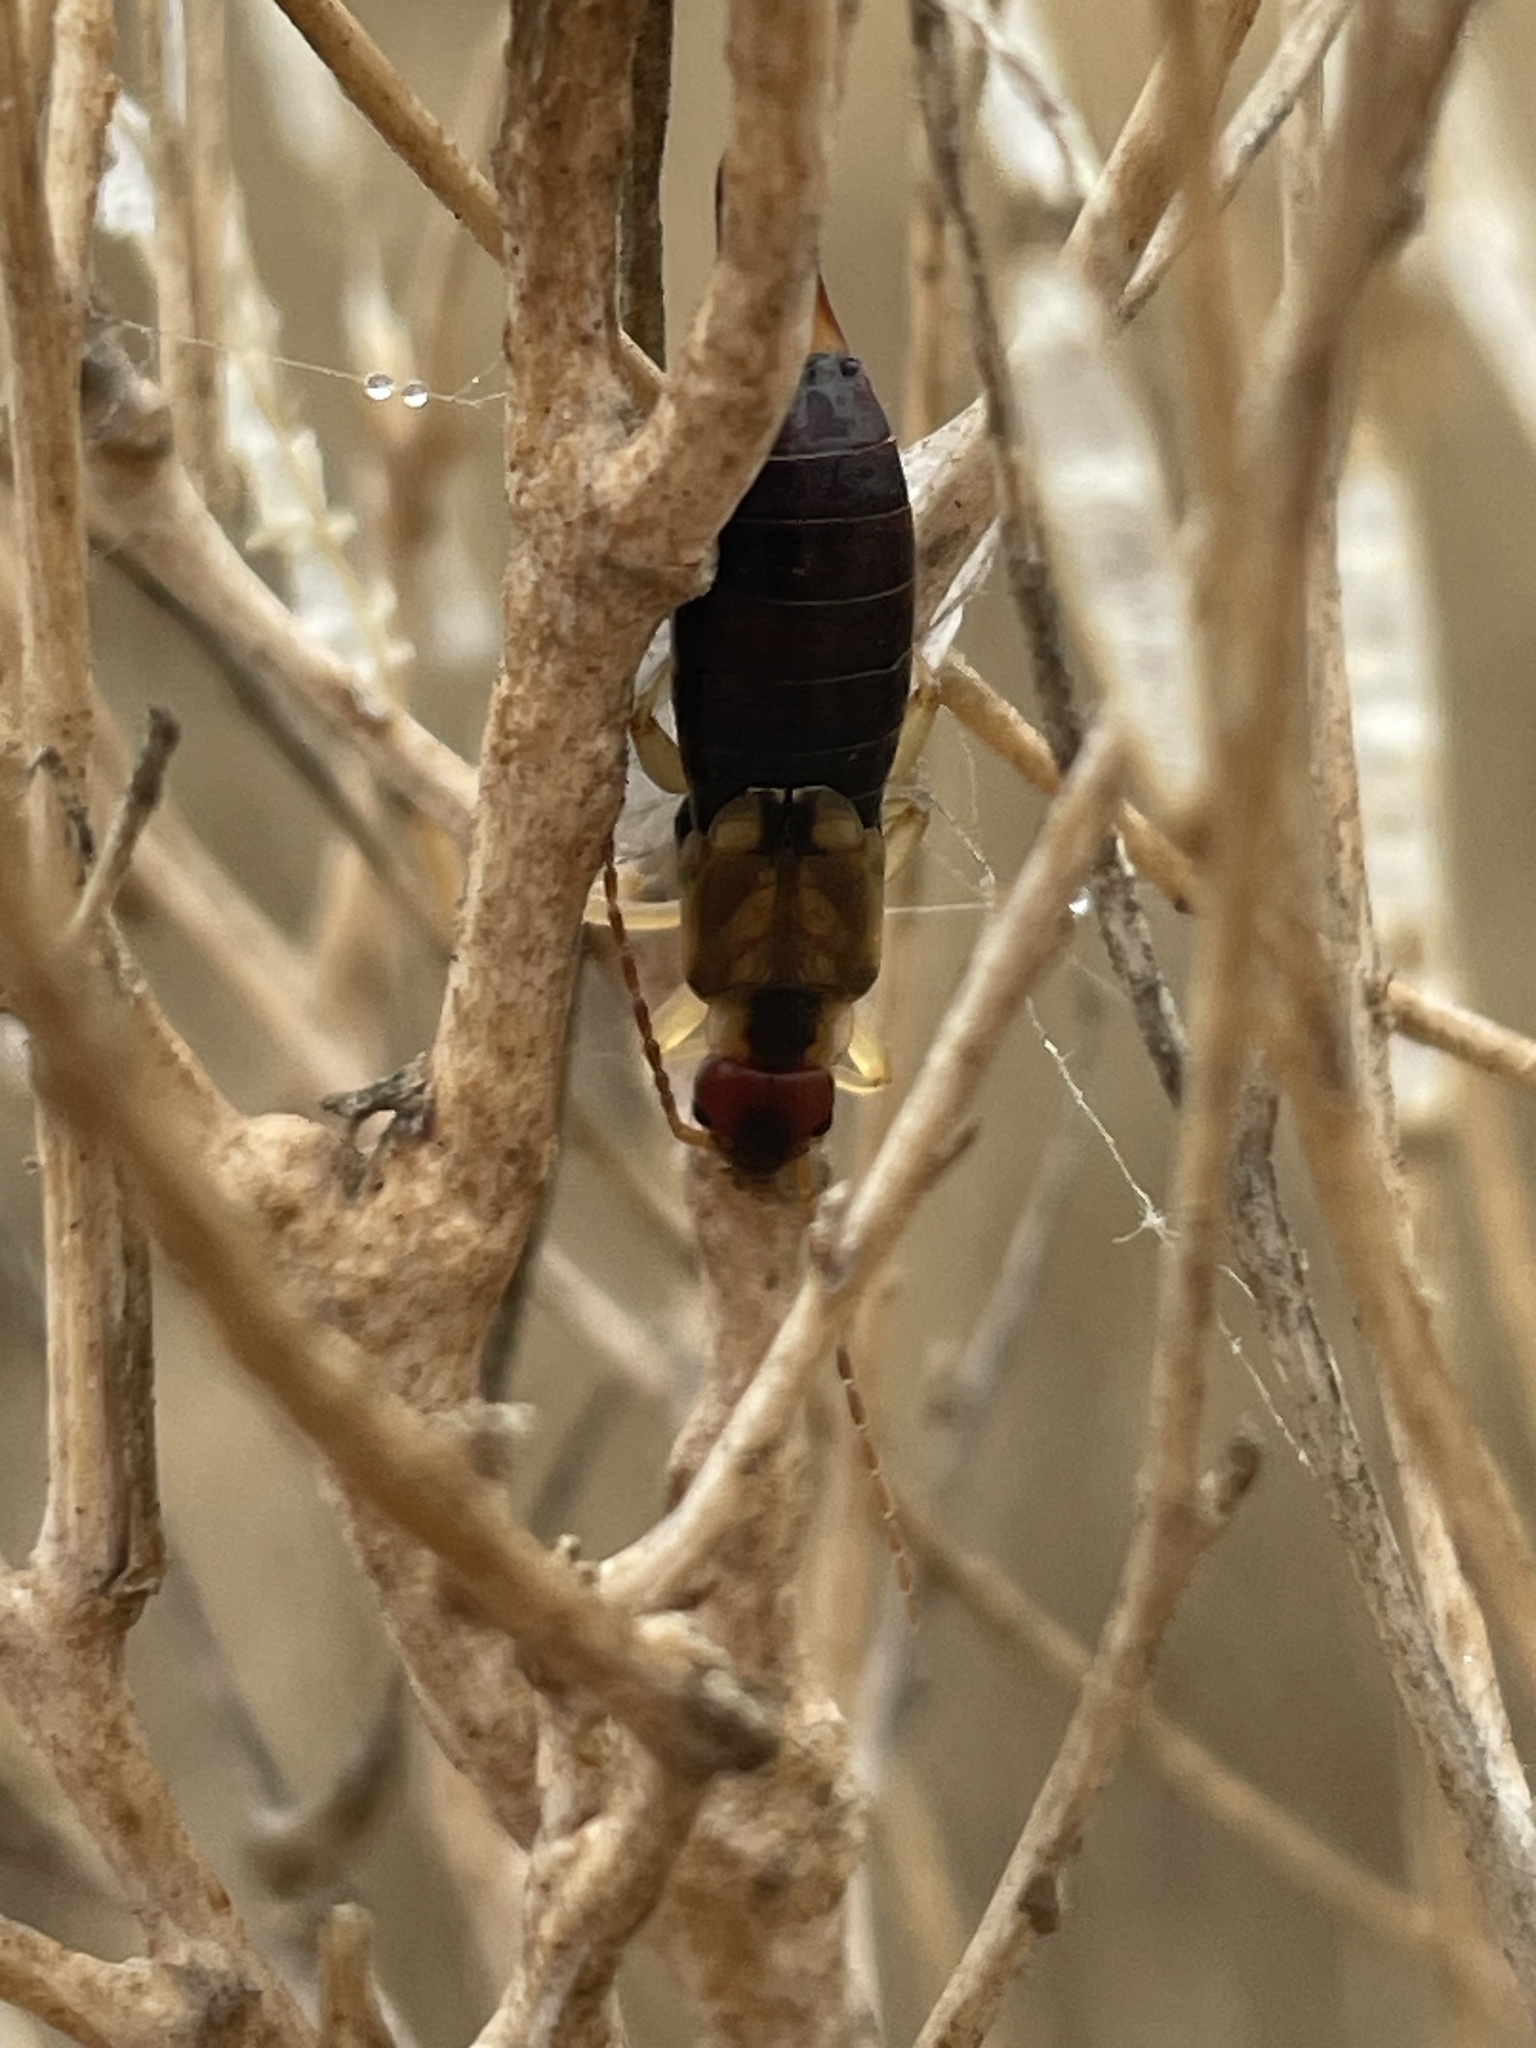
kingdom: Animalia
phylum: Arthropoda
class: Insecta
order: Dermaptera
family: Forficulidae
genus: Forficula
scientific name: Forficula dentata
